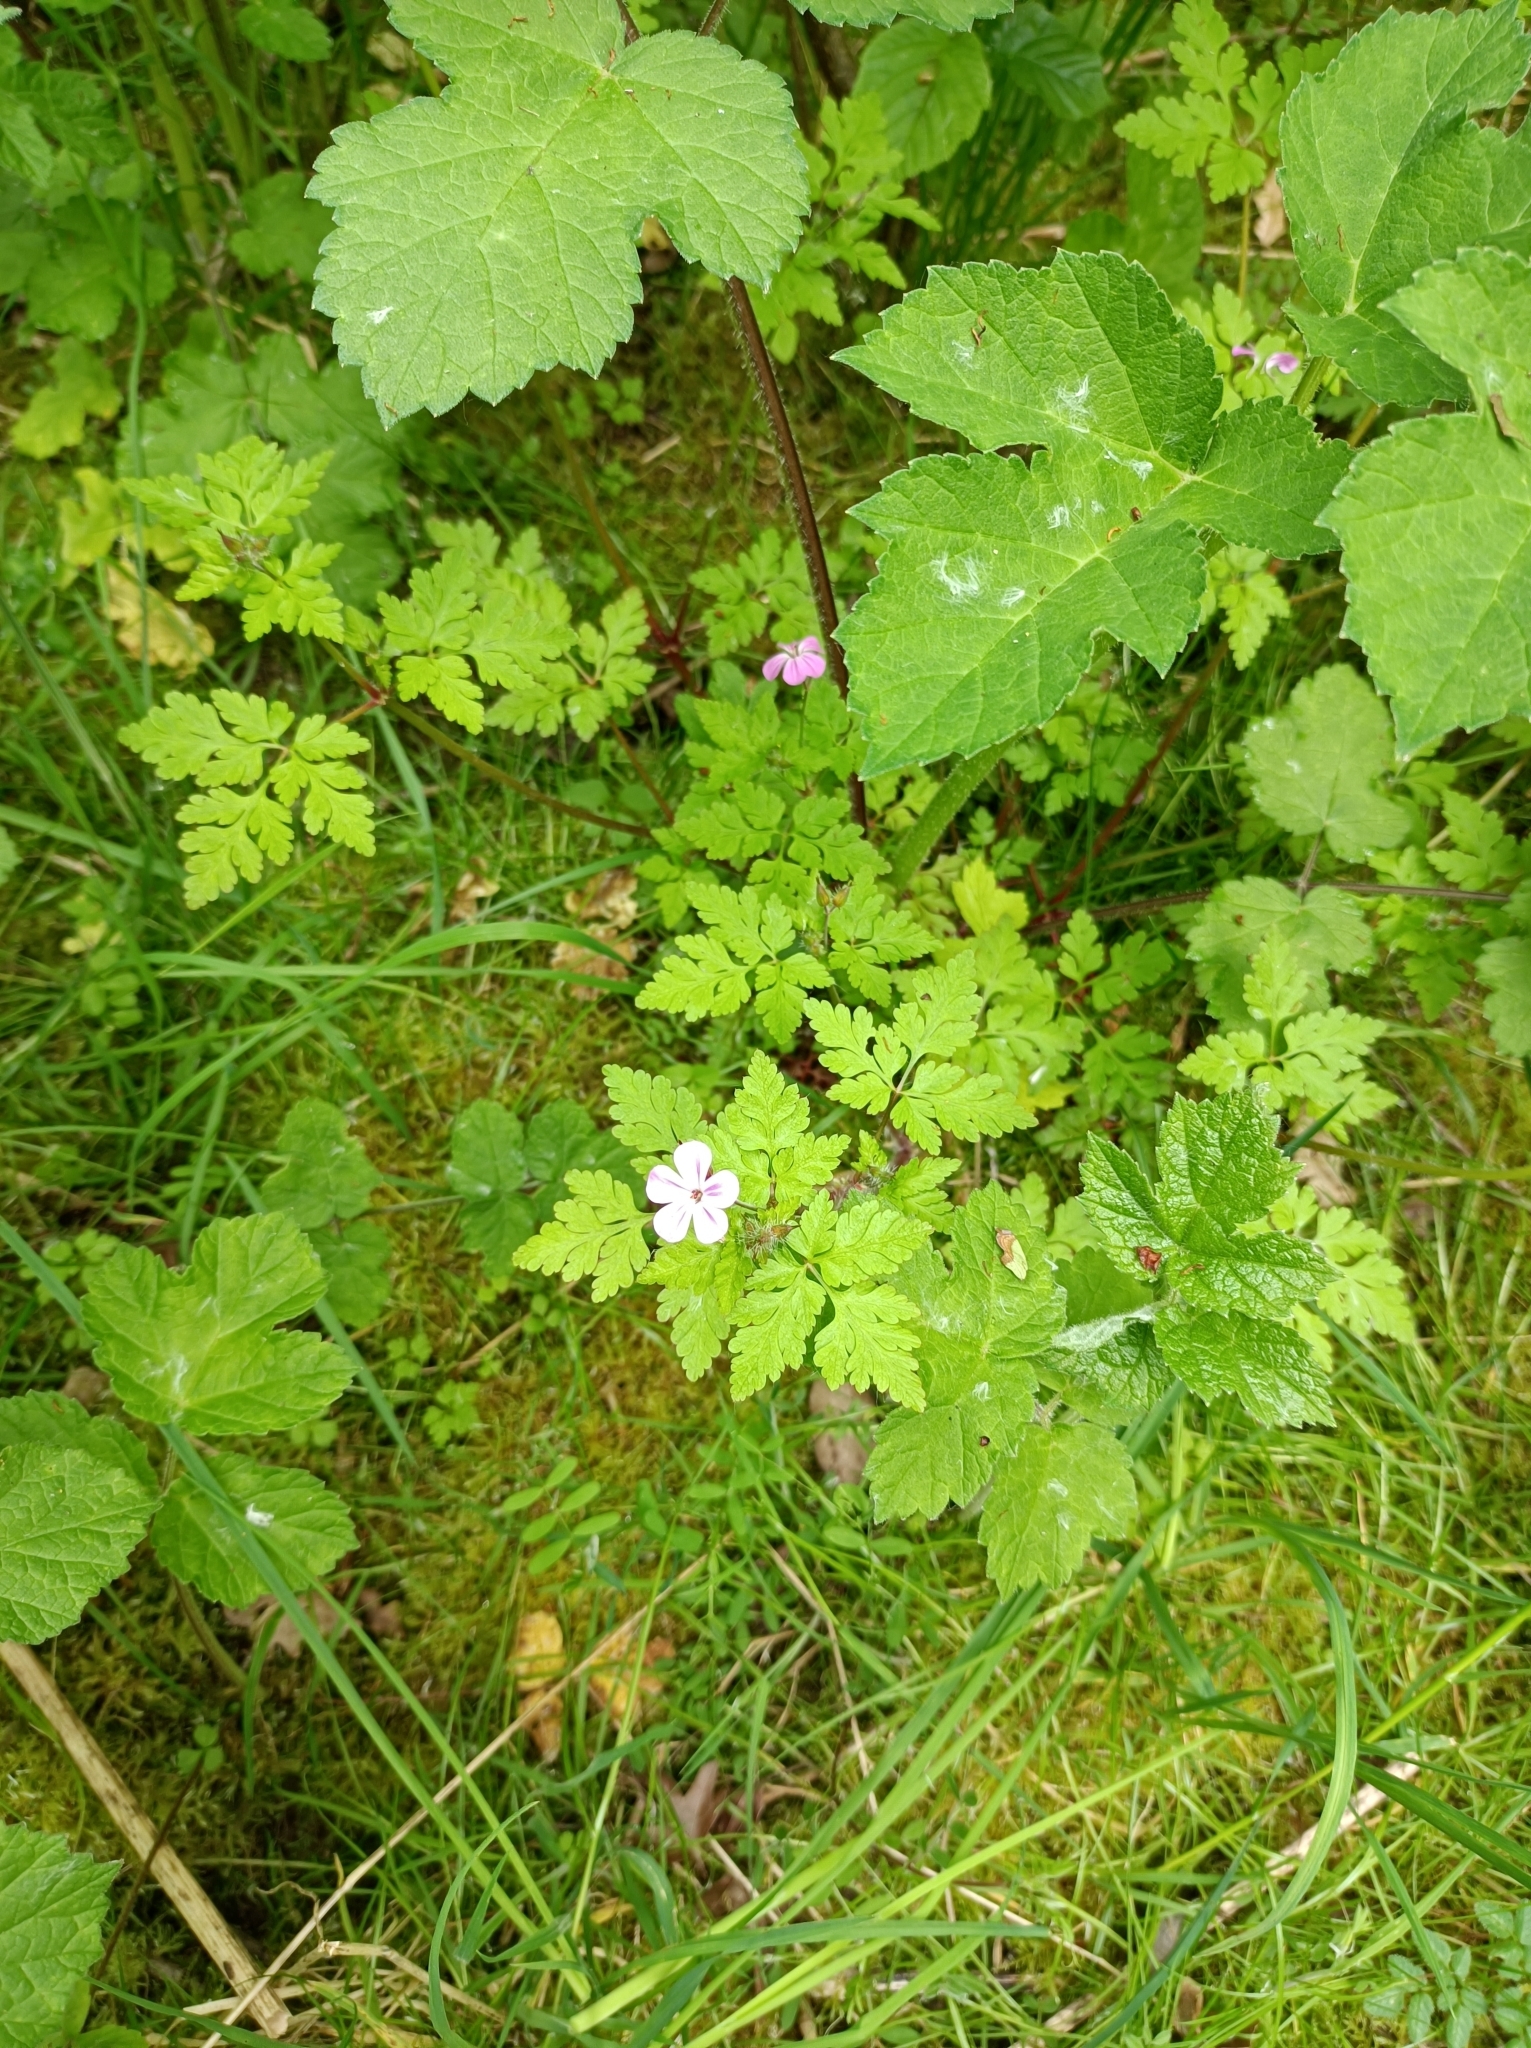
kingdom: Plantae
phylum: Tracheophyta
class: Magnoliopsida
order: Geraniales
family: Geraniaceae
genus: Geranium
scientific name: Geranium robertianum
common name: Herb-robert
